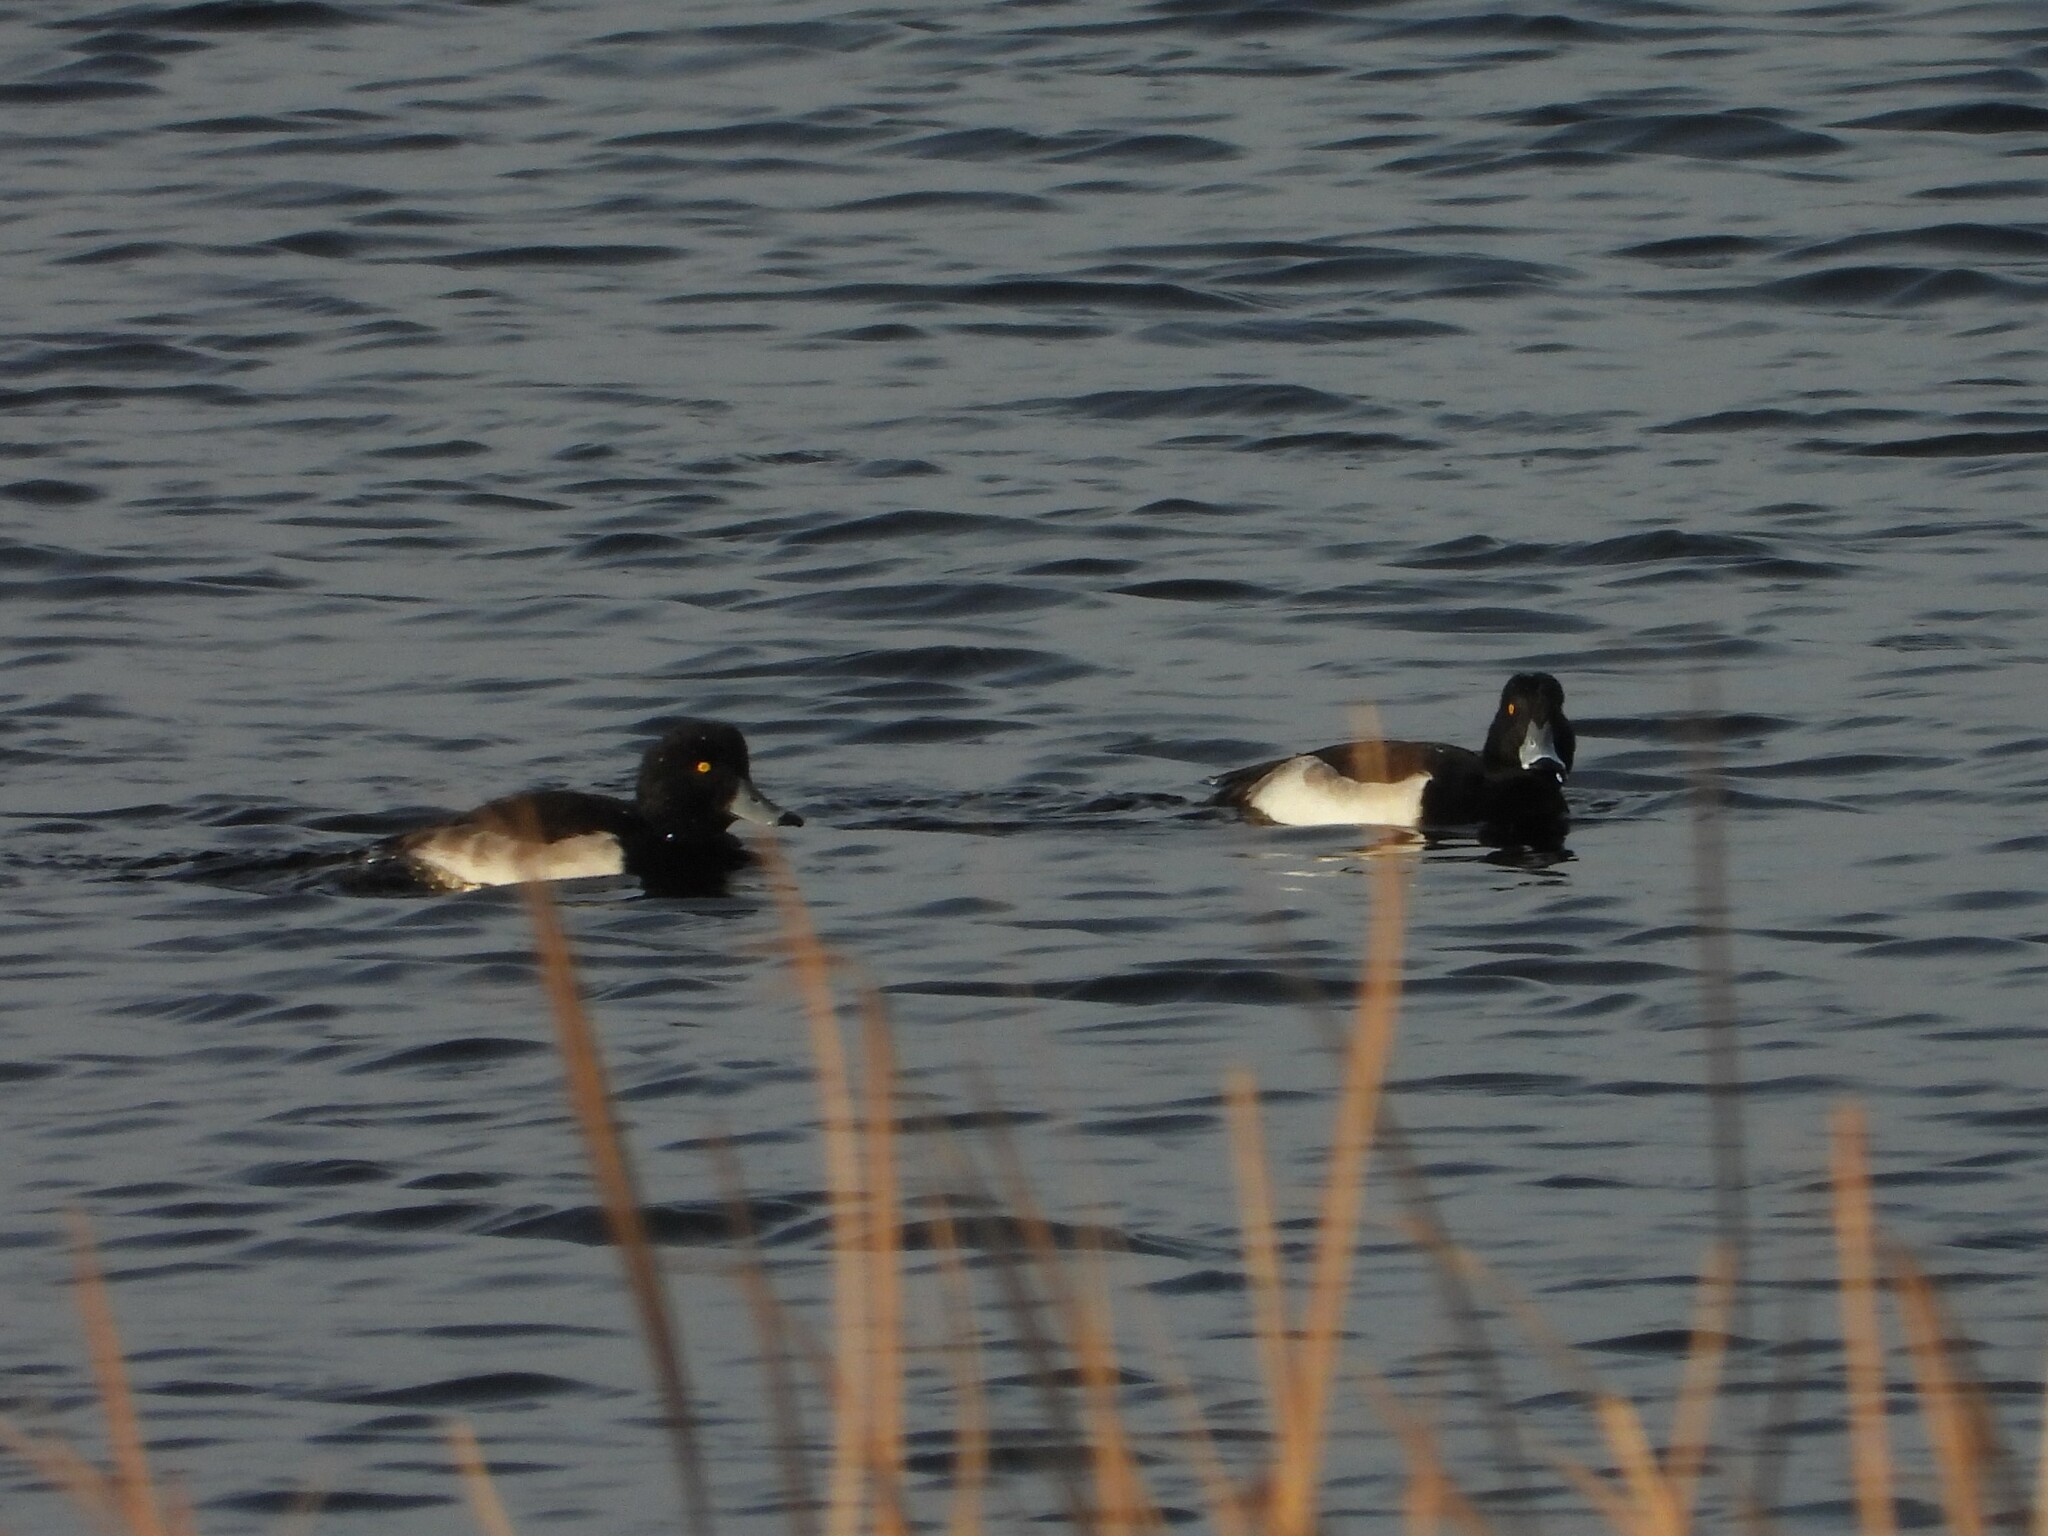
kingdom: Animalia
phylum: Chordata
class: Aves
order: Anseriformes
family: Anatidae
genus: Aythya
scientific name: Aythya fuligula
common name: Tufted duck
